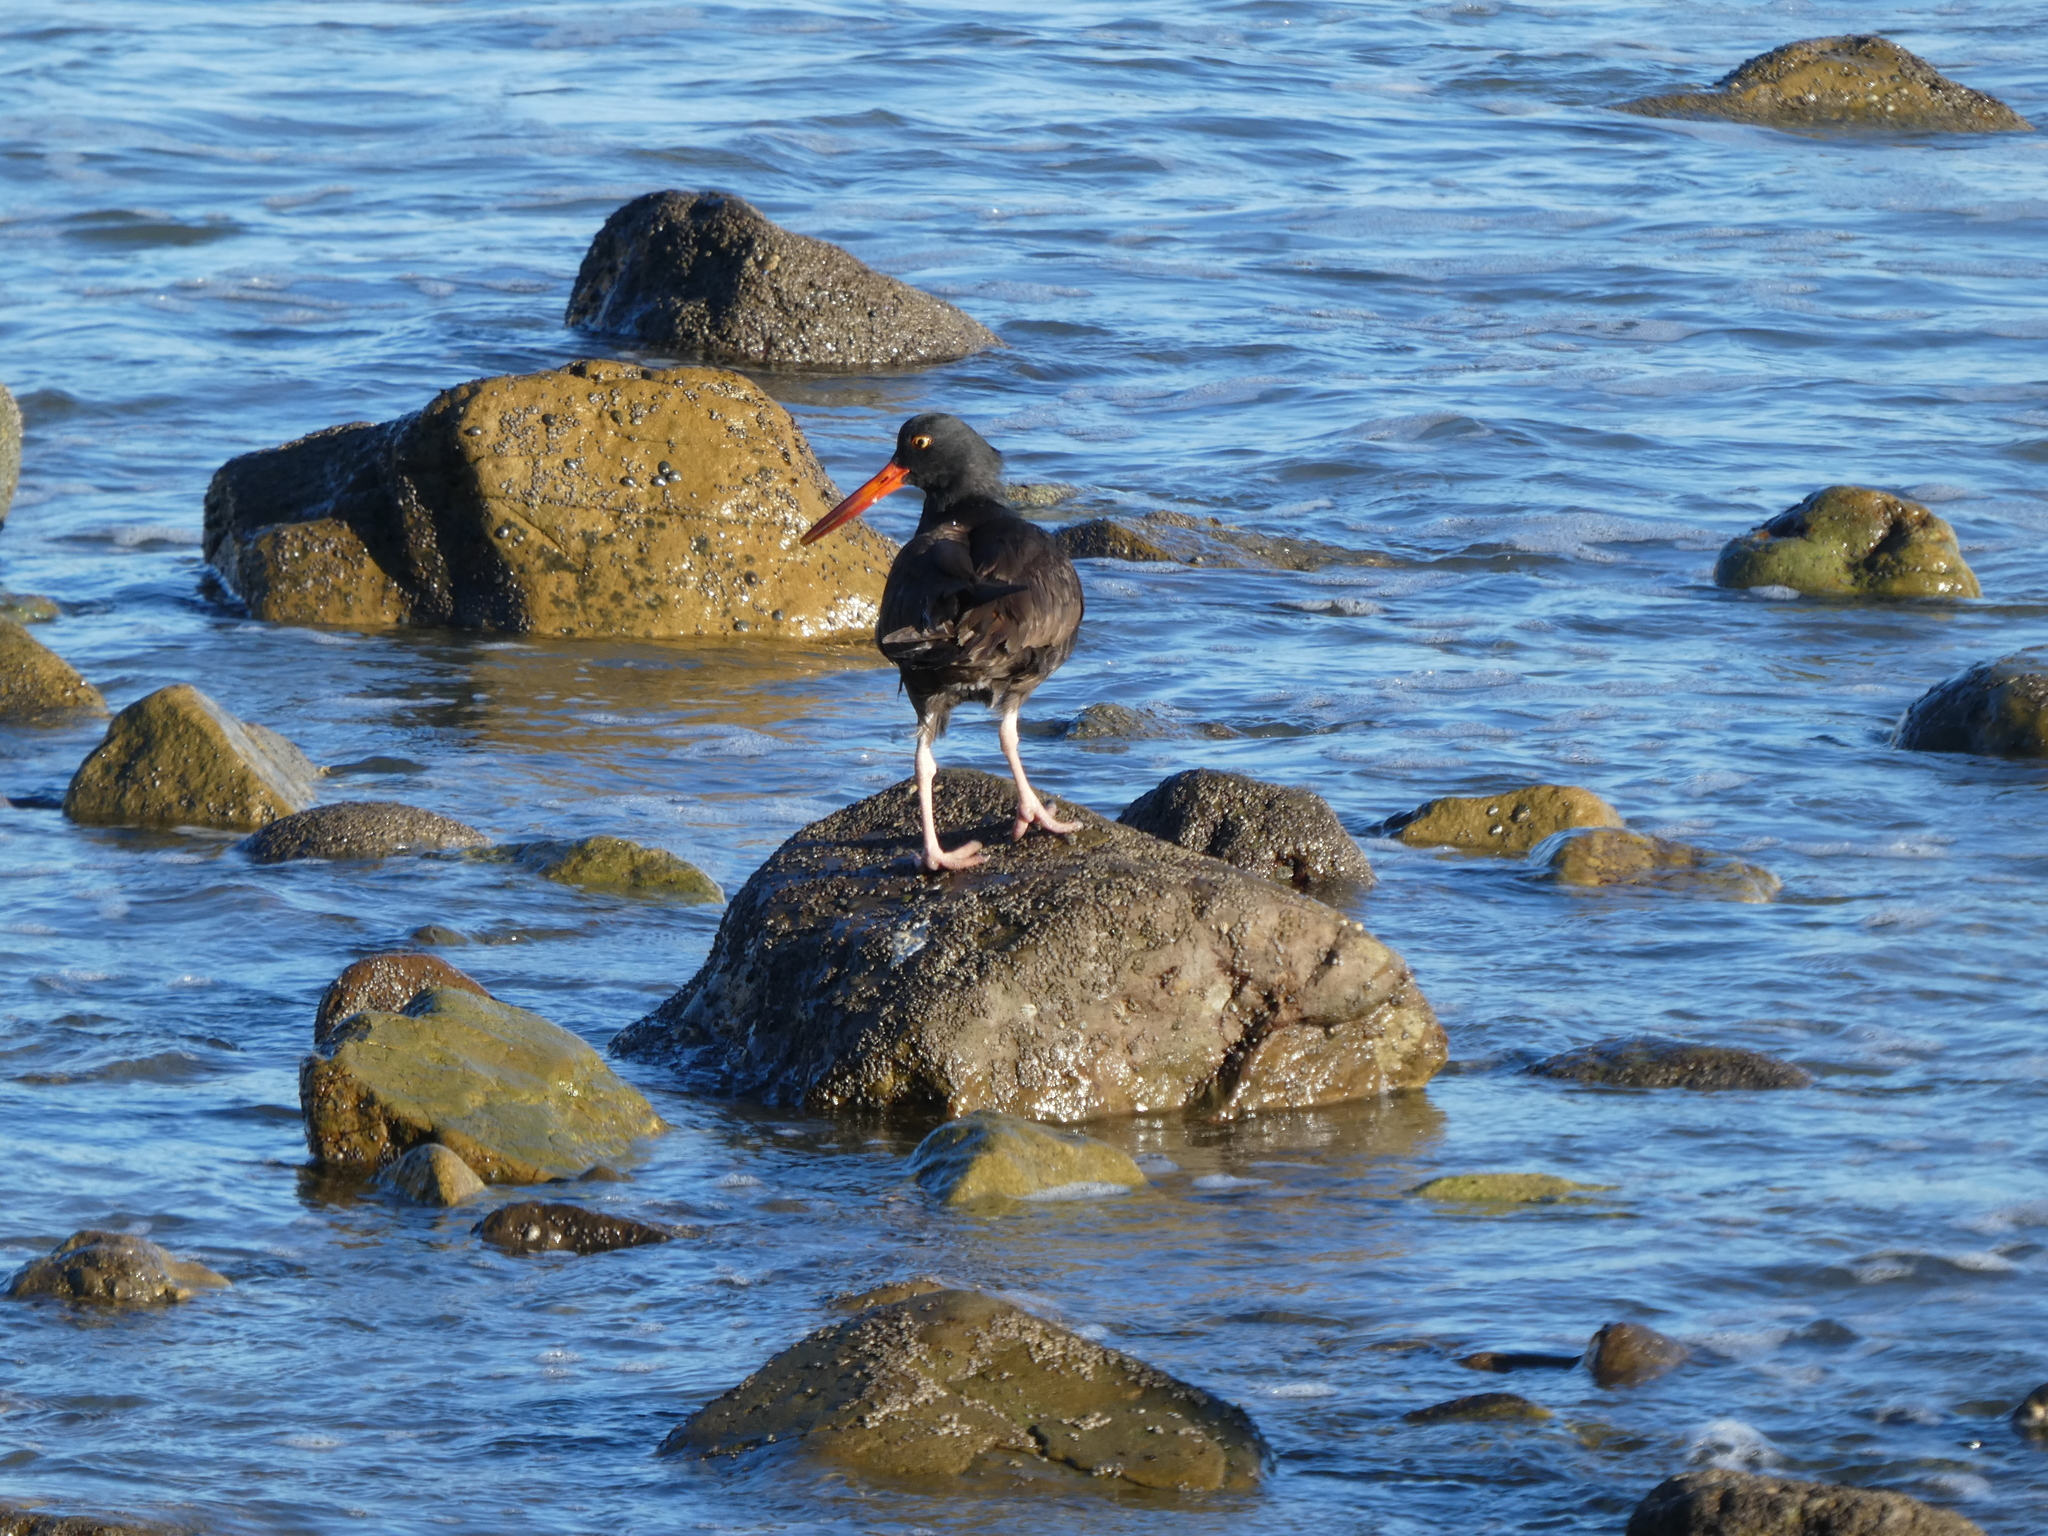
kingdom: Animalia
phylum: Chordata
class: Aves
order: Charadriiformes
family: Haematopodidae
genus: Haematopus
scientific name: Haematopus bachmani
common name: Black oystercatcher
